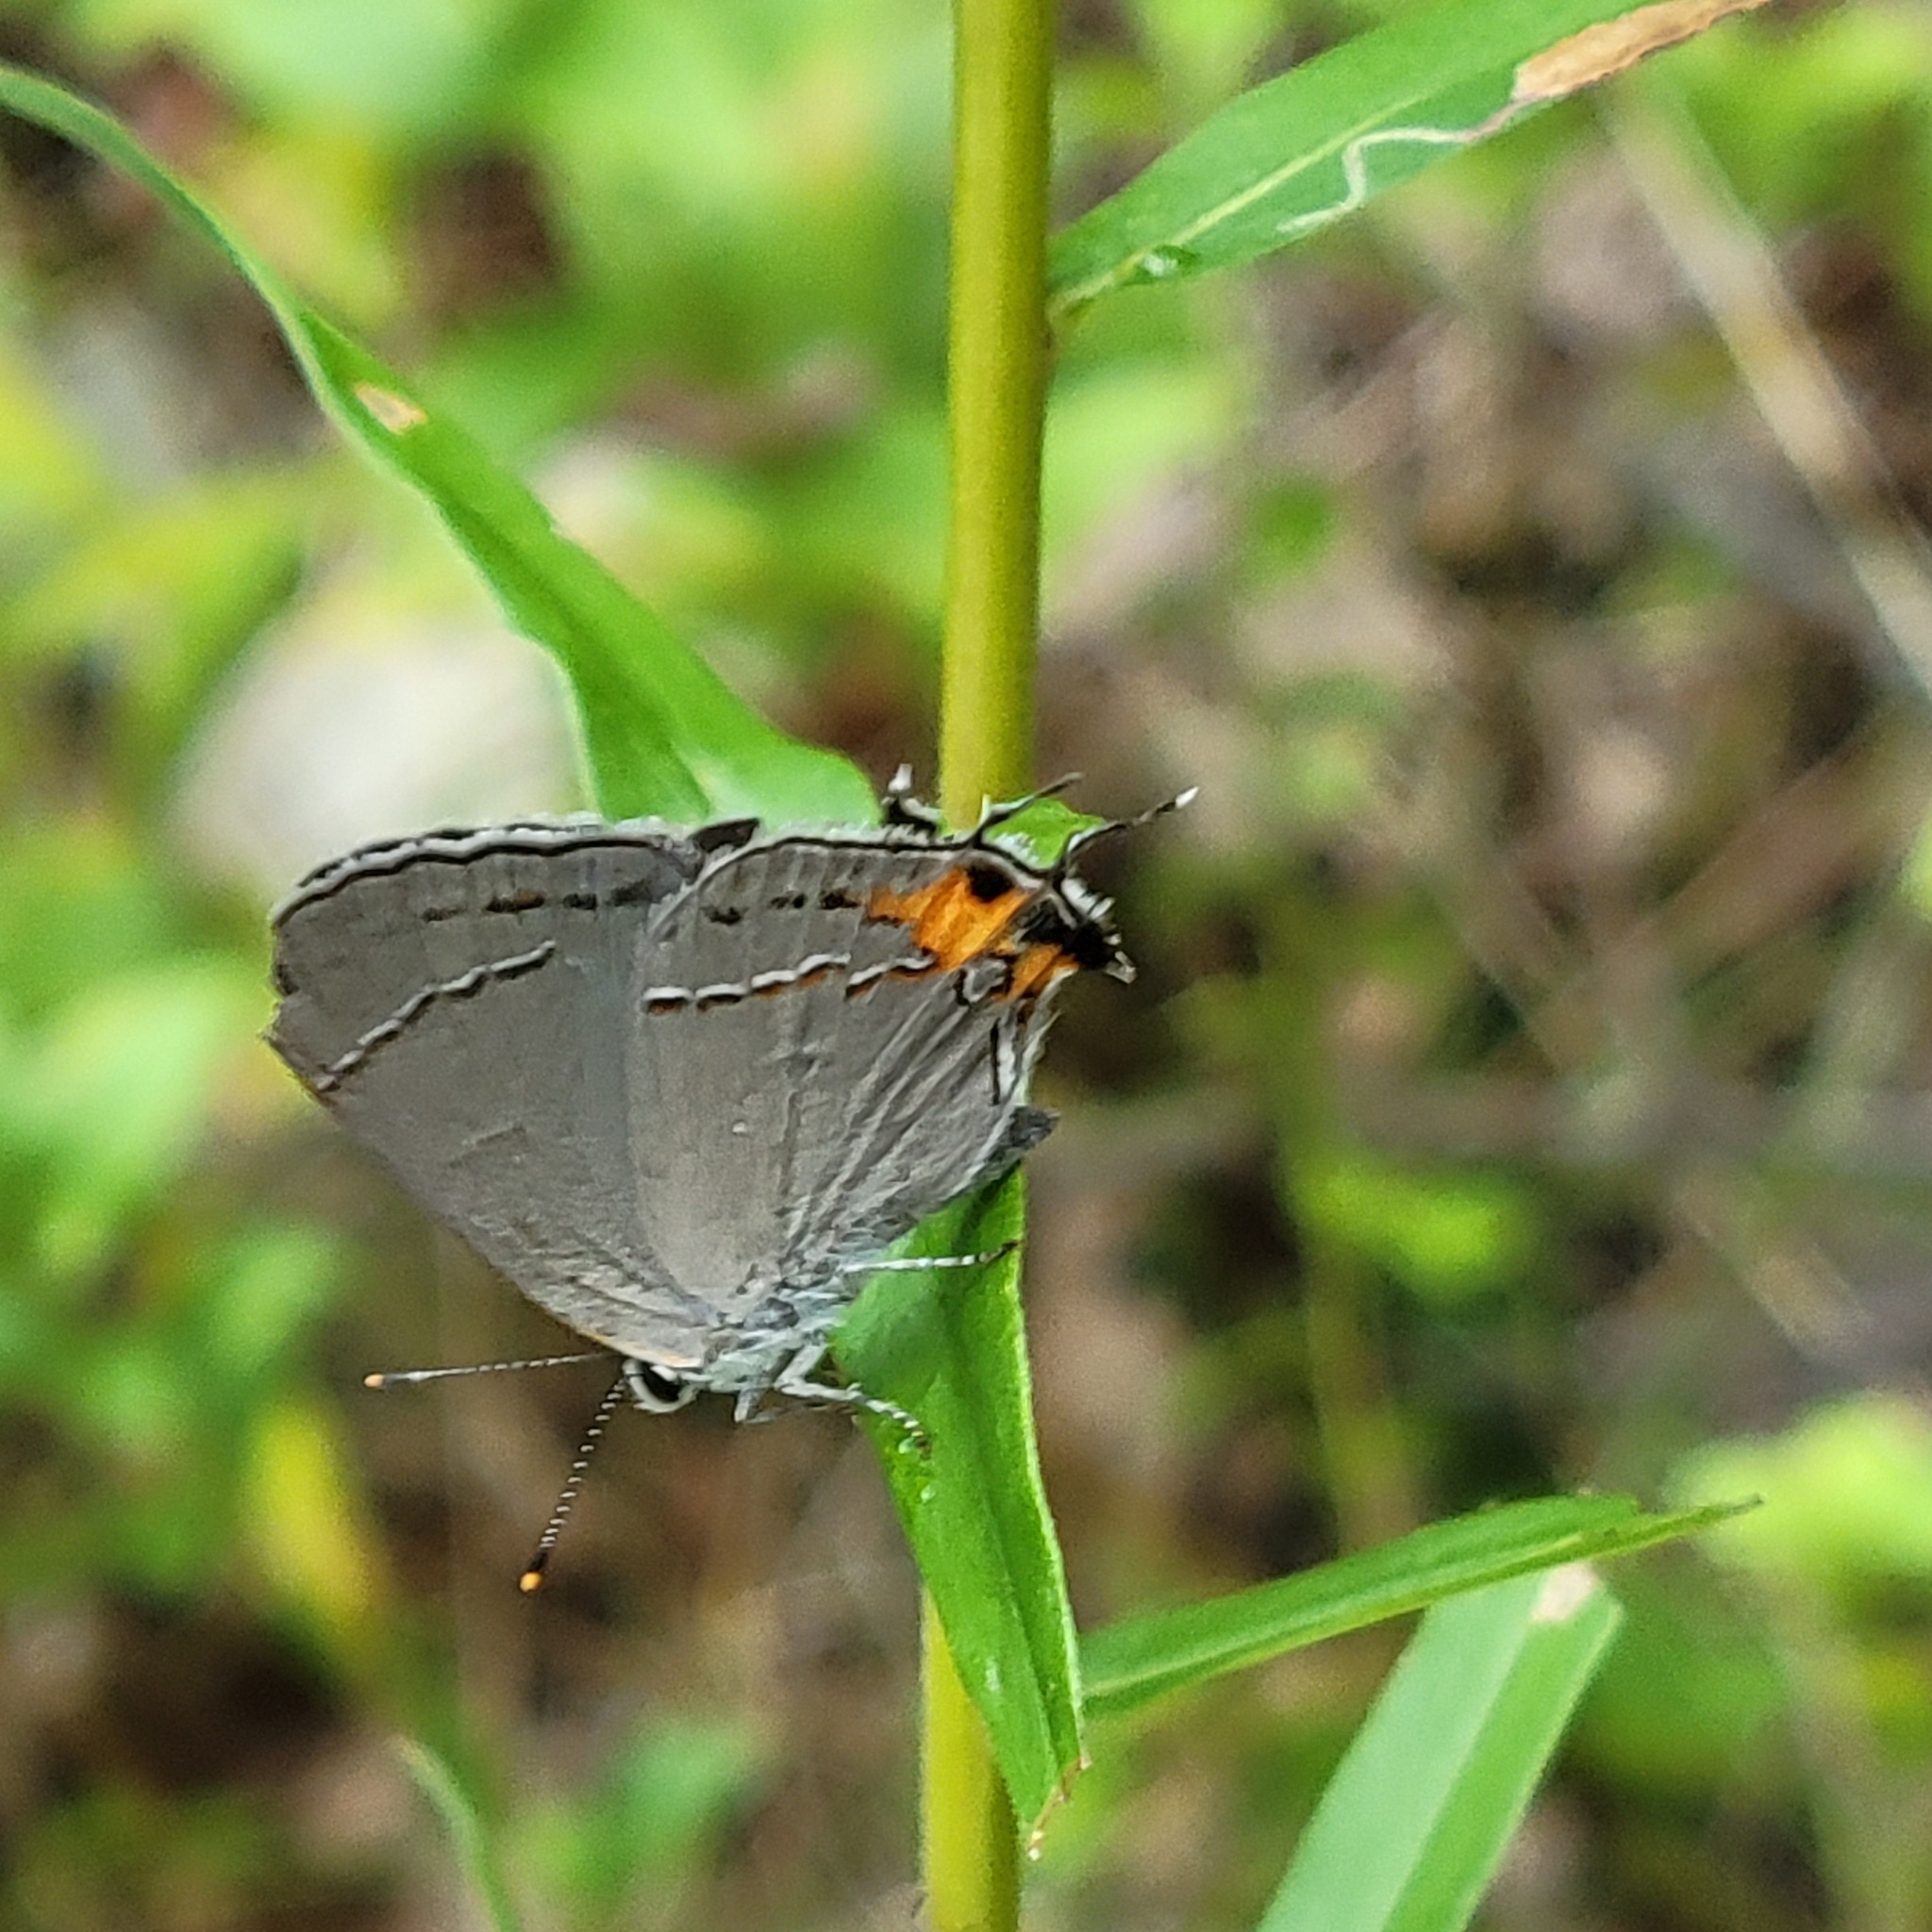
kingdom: Animalia
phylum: Arthropoda
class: Insecta
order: Lepidoptera
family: Lycaenidae
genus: Strymon
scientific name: Strymon melinus
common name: Gray hairstreak
